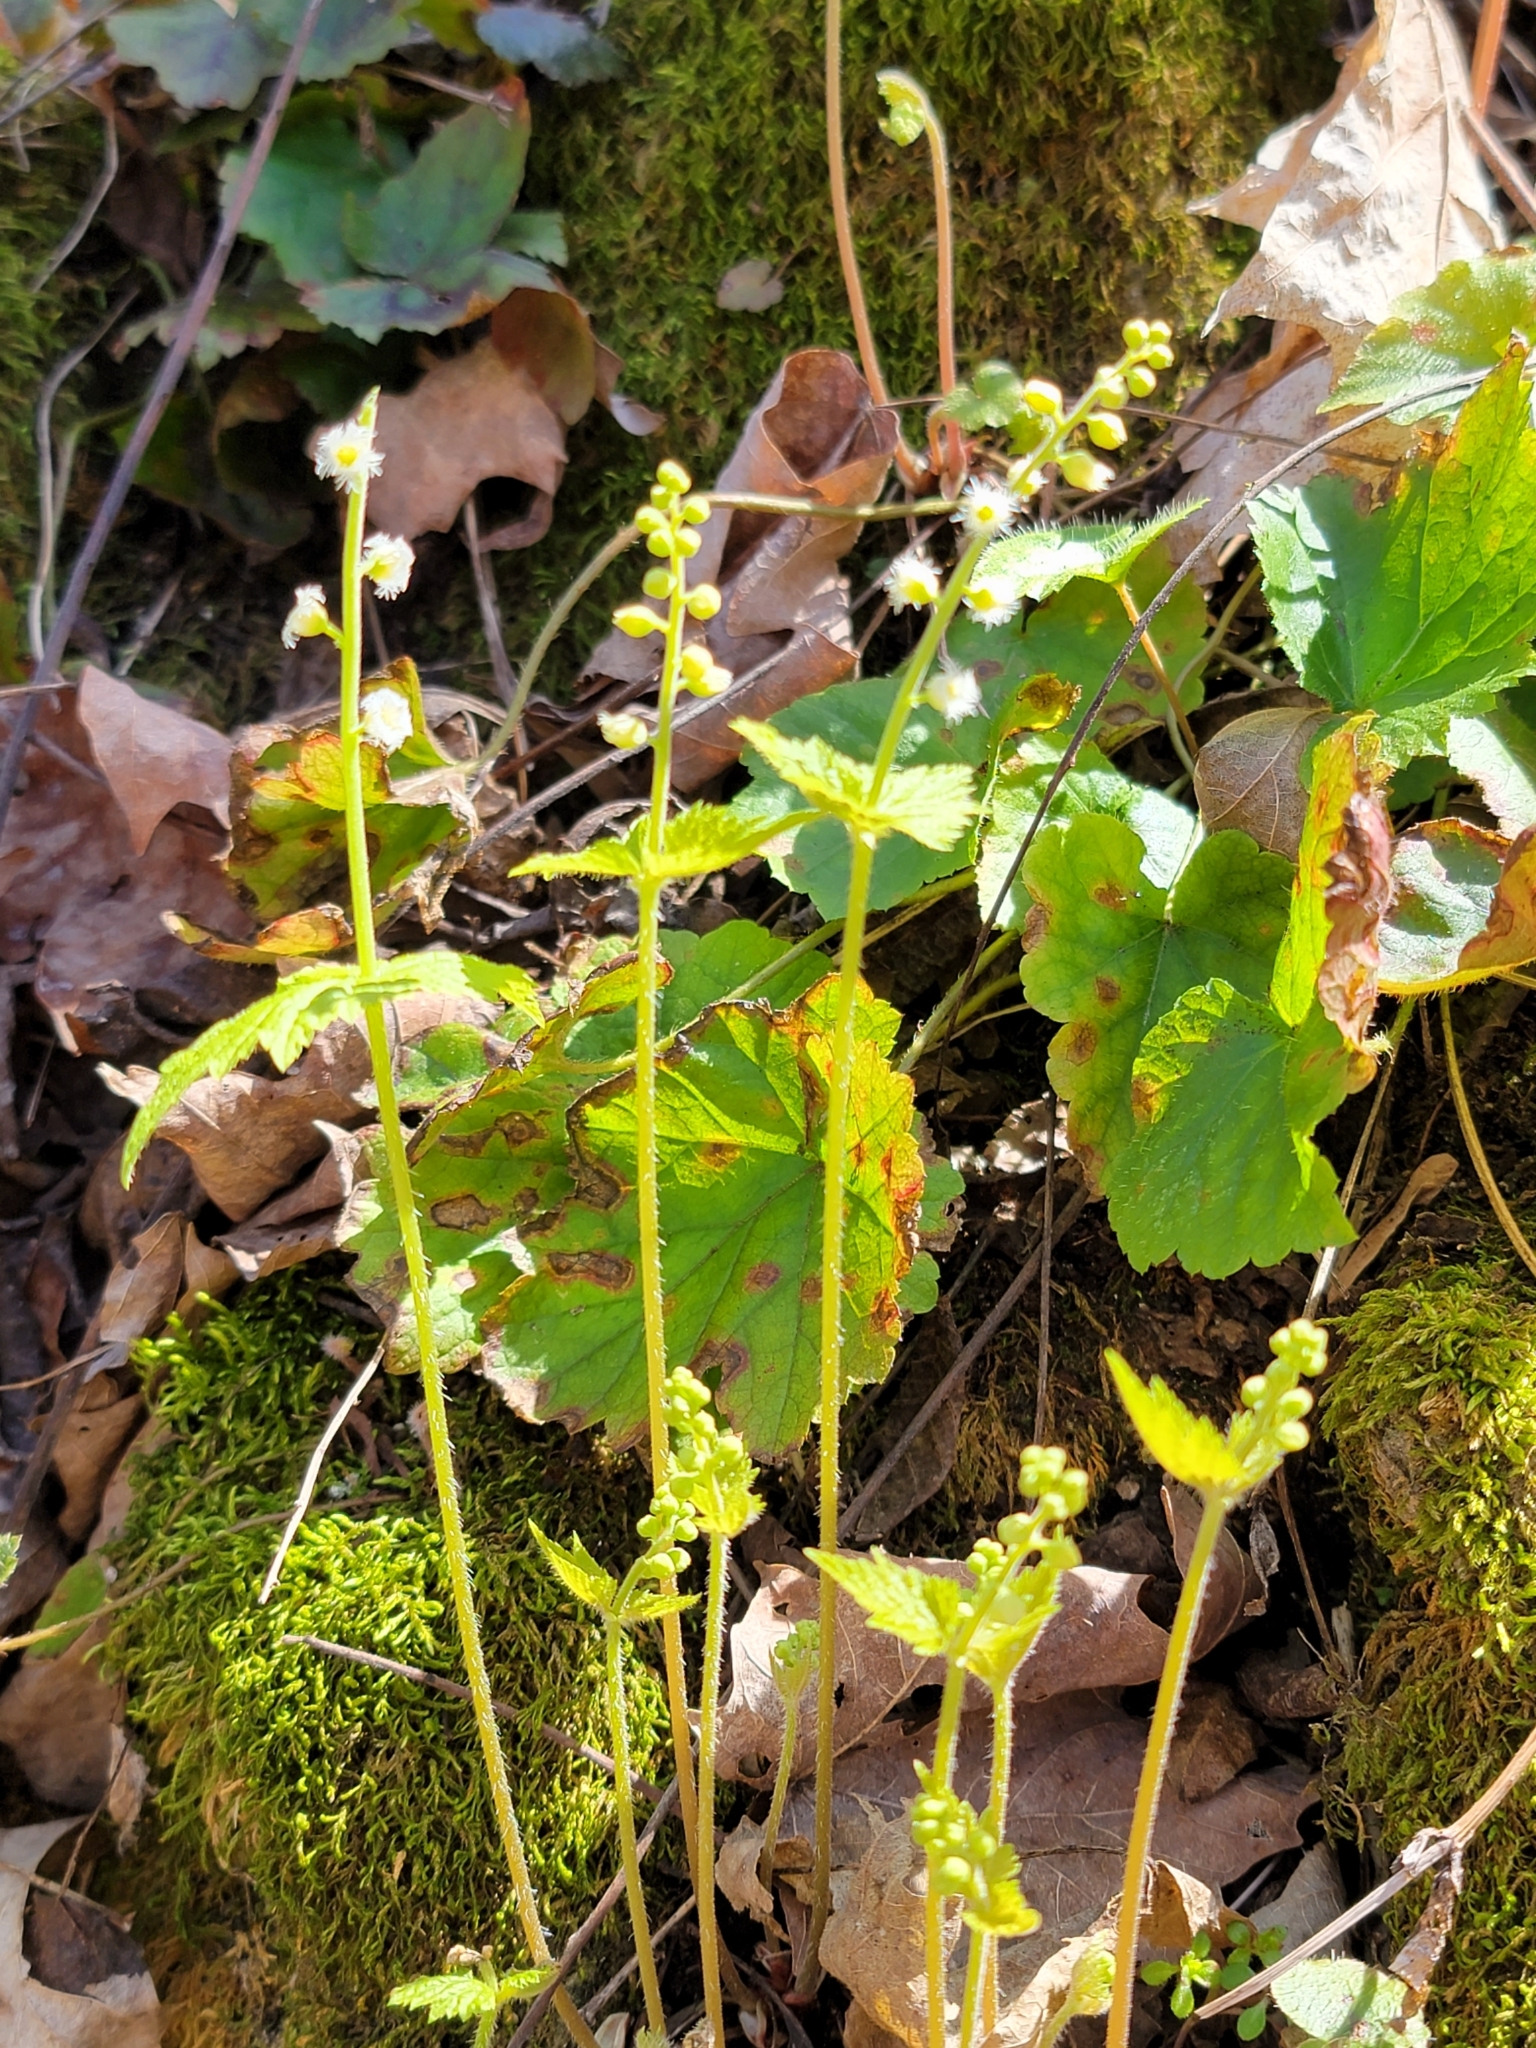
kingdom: Plantae
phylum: Tracheophyta
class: Magnoliopsida
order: Saxifragales
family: Saxifragaceae
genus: Mitella
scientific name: Mitella diphylla
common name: Coolwort
